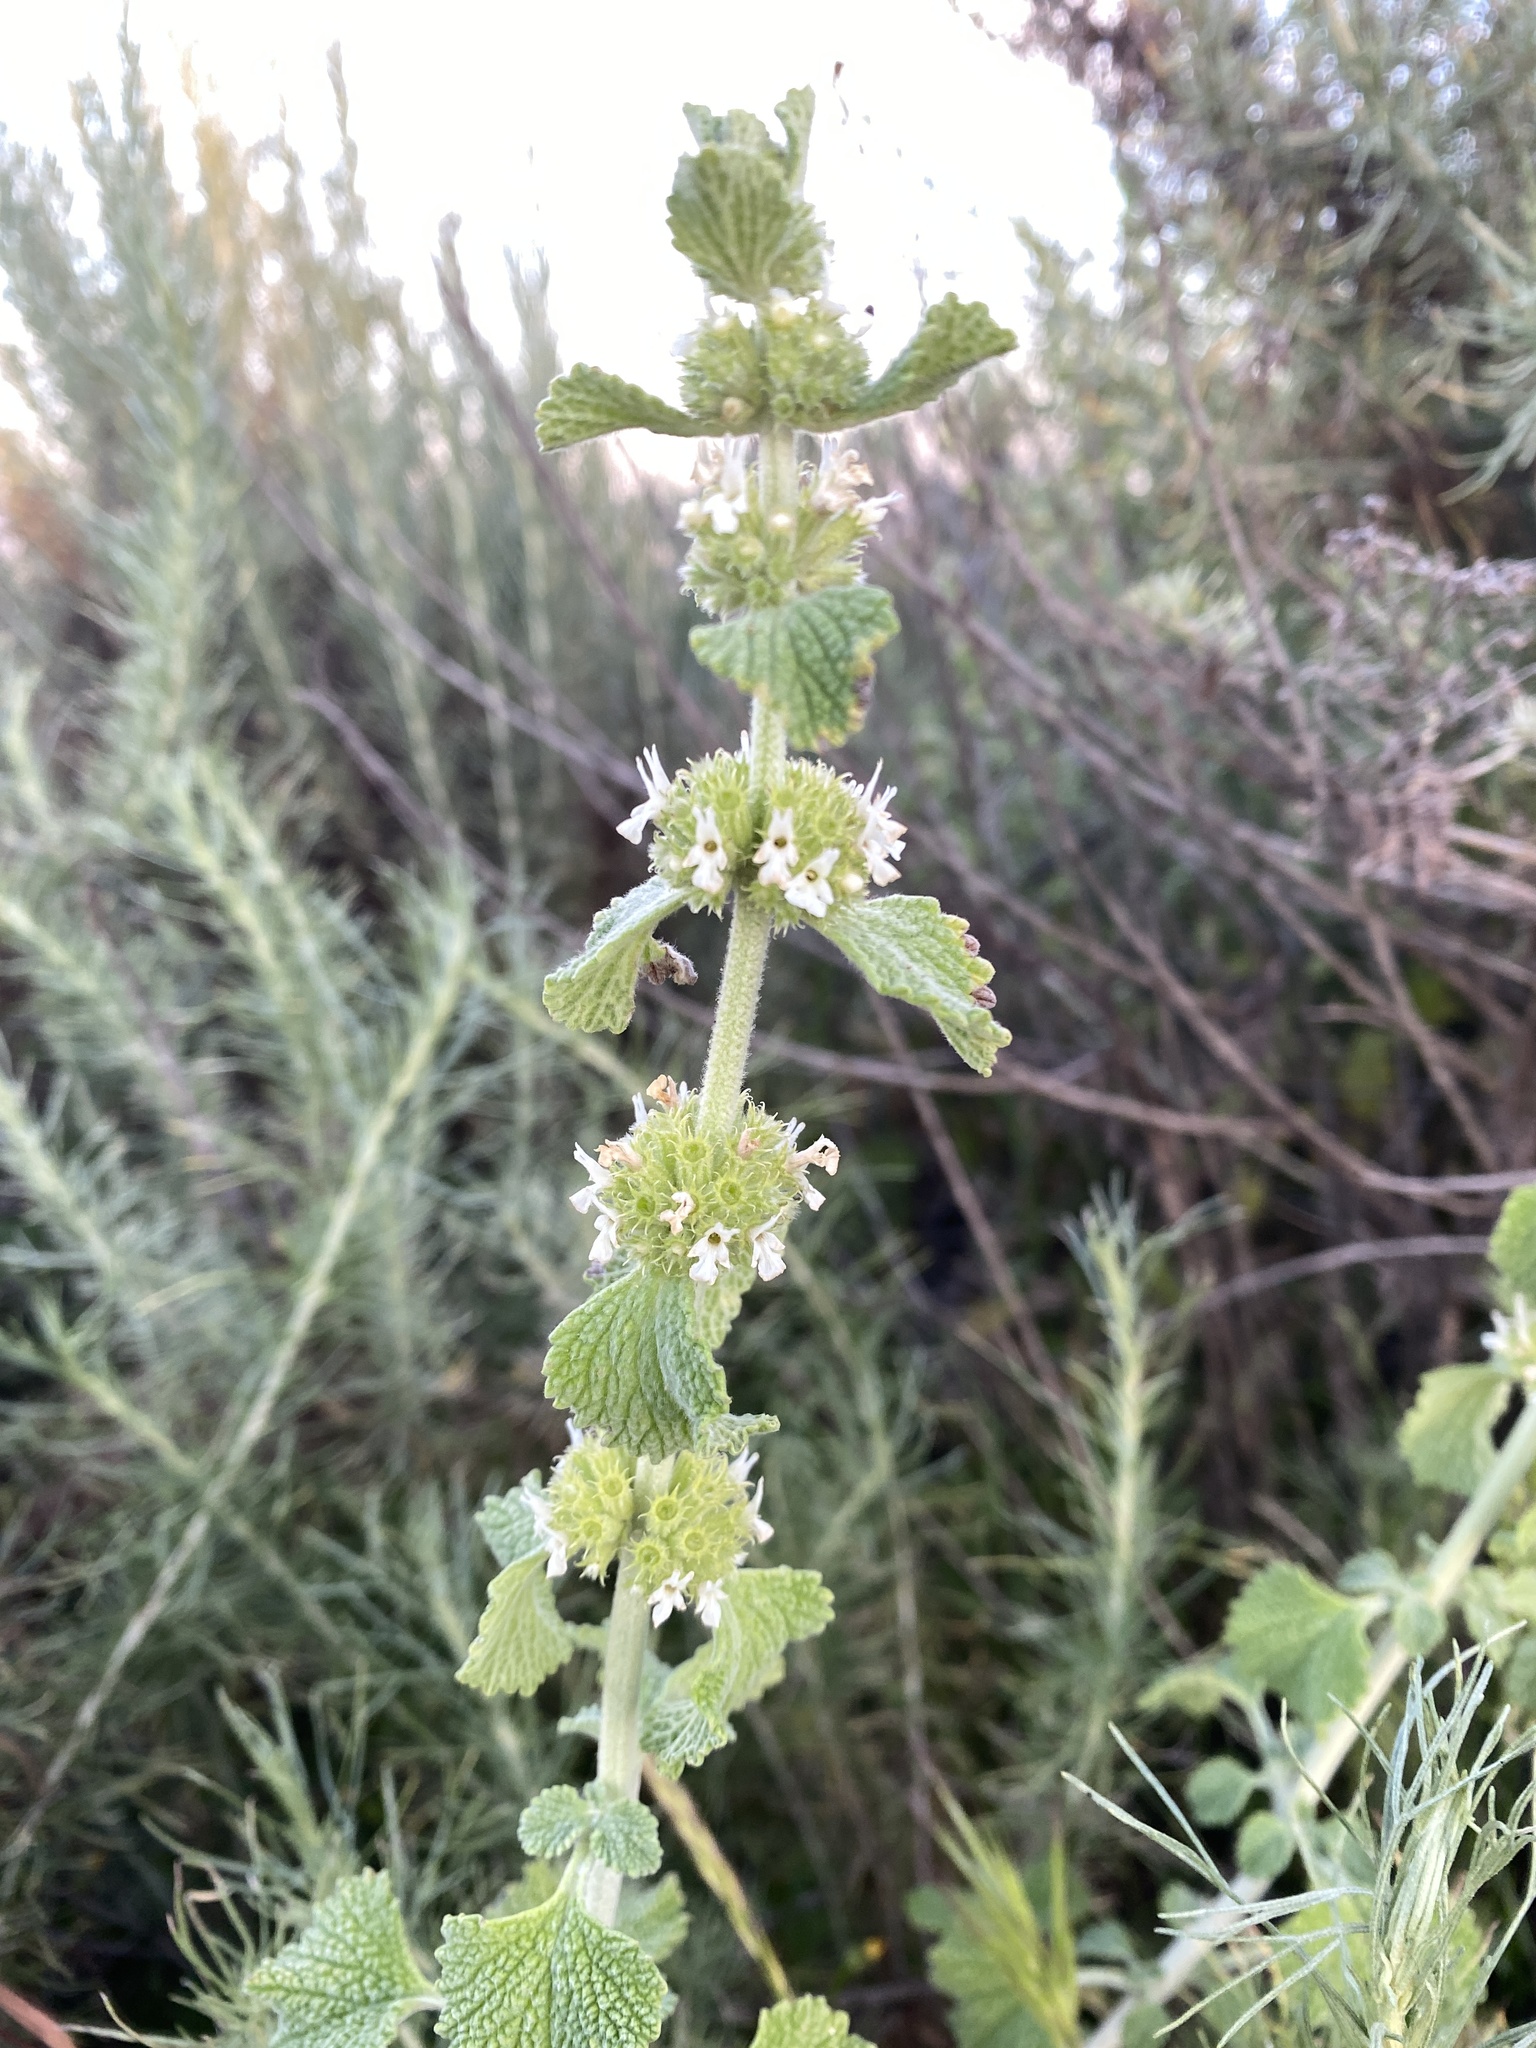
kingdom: Plantae
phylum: Tracheophyta
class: Magnoliopsida
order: Lamiales
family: Lamiaceae
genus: Marrubium
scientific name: Marrubium vulgare
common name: Horehound
